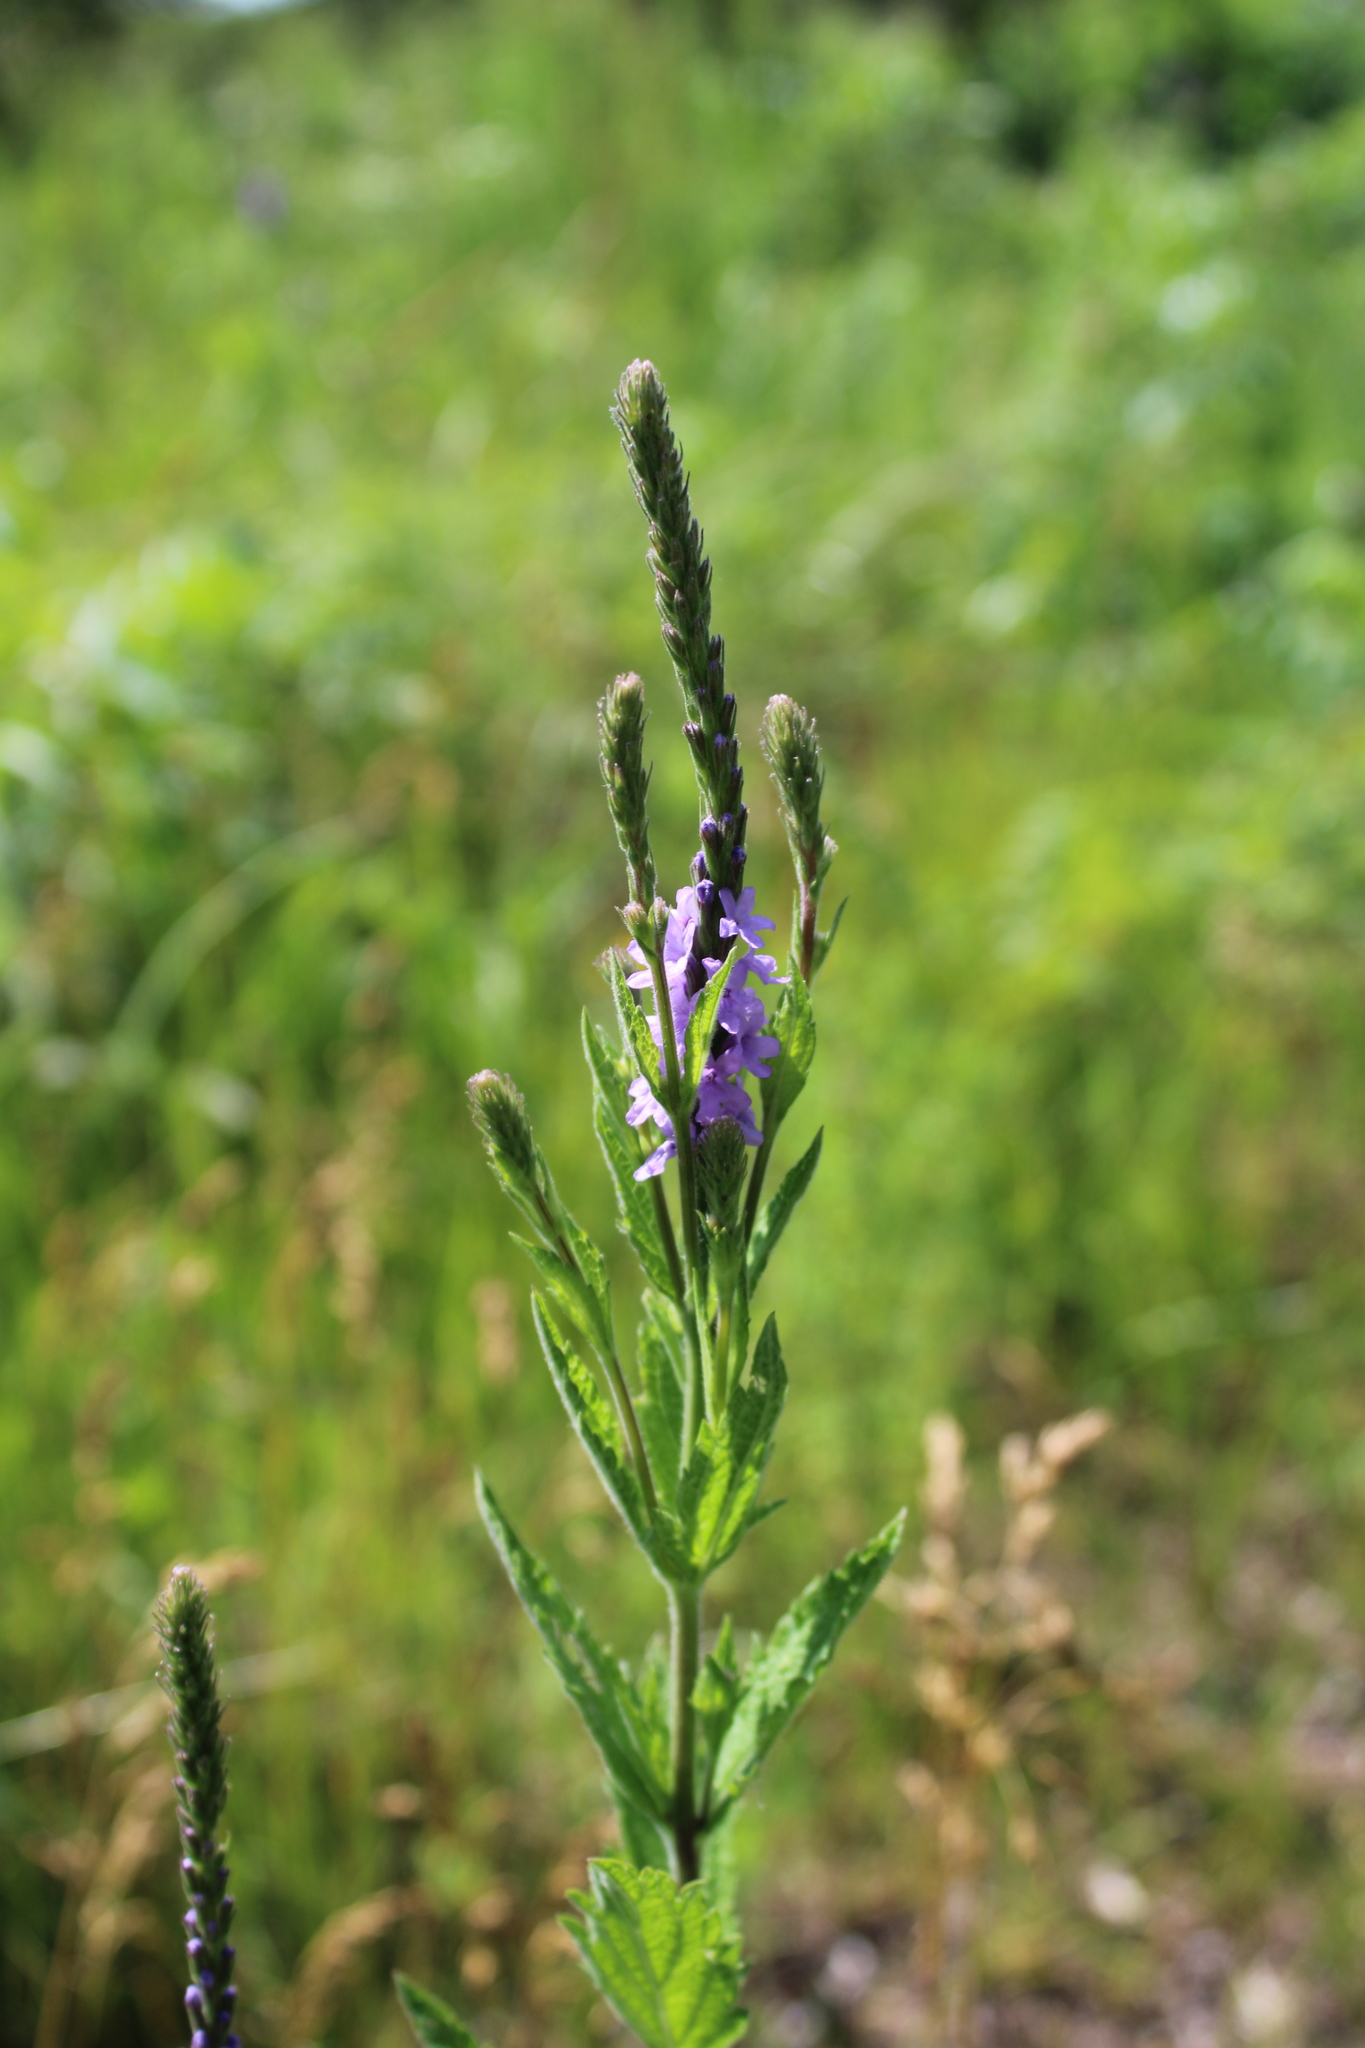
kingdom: Plantae
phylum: Tracheophyta
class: Magnoliopsida
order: Lamiales
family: Verbenaceae
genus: Verbena
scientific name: Verbena stricta
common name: Hoary vervain
